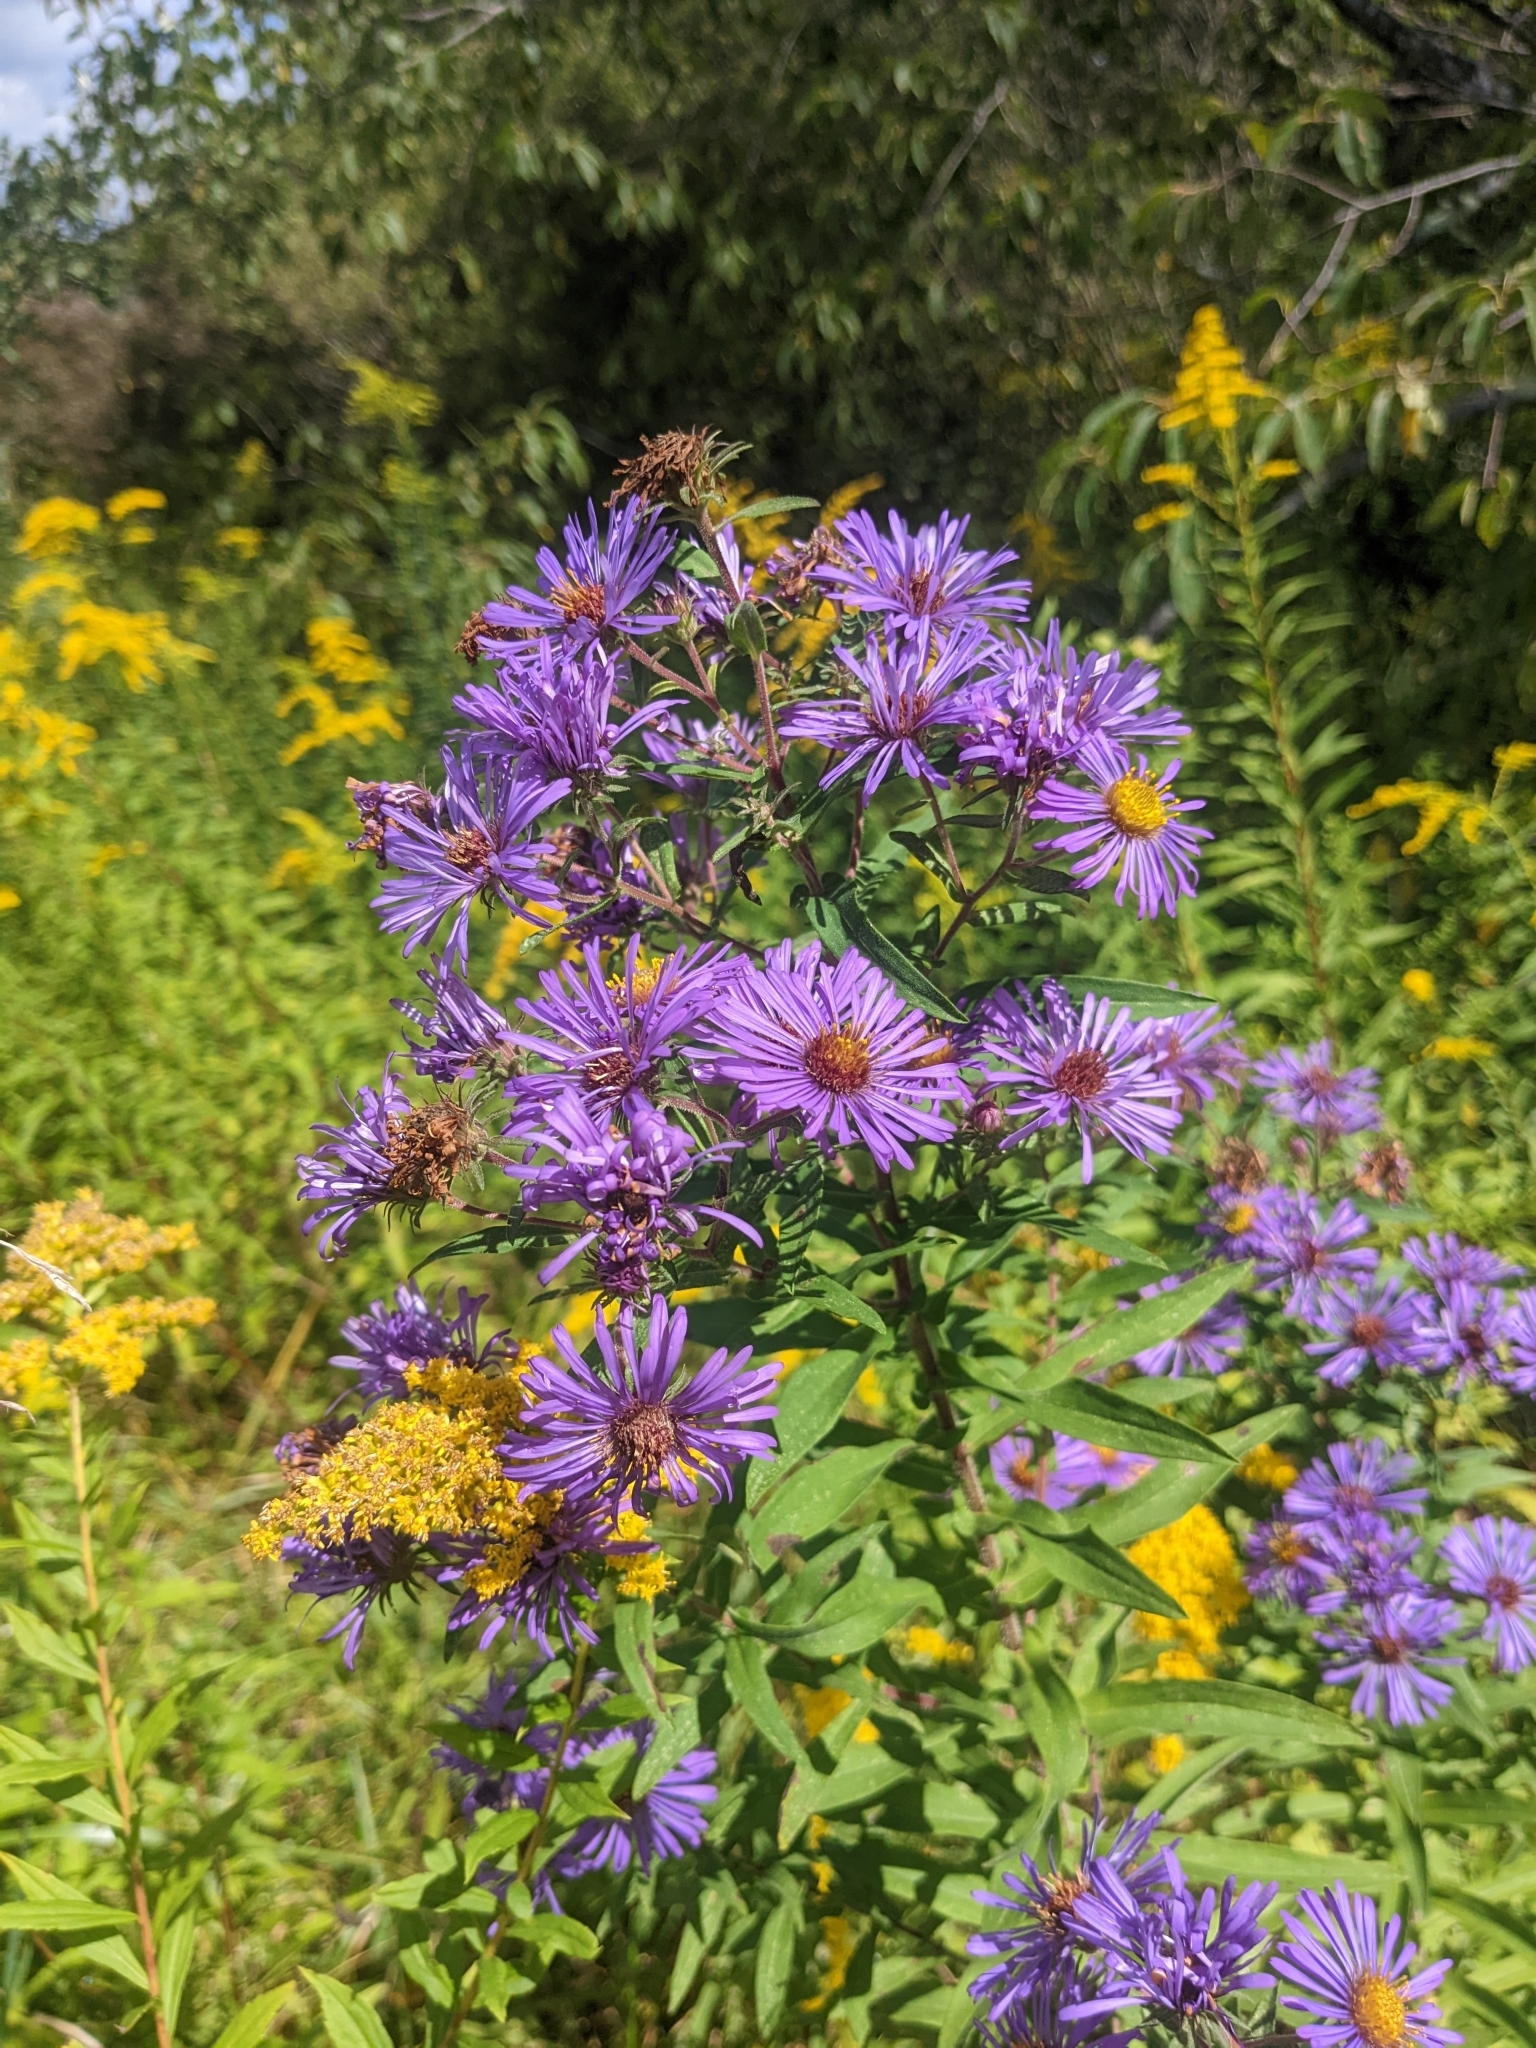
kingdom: Plantae
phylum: Tracheophyta
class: Magnoliopsida
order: Asterales
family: Asteraceae
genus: Symphyotrichum
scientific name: Symphyotrichum novae-angliae
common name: Michaelmas daisy
